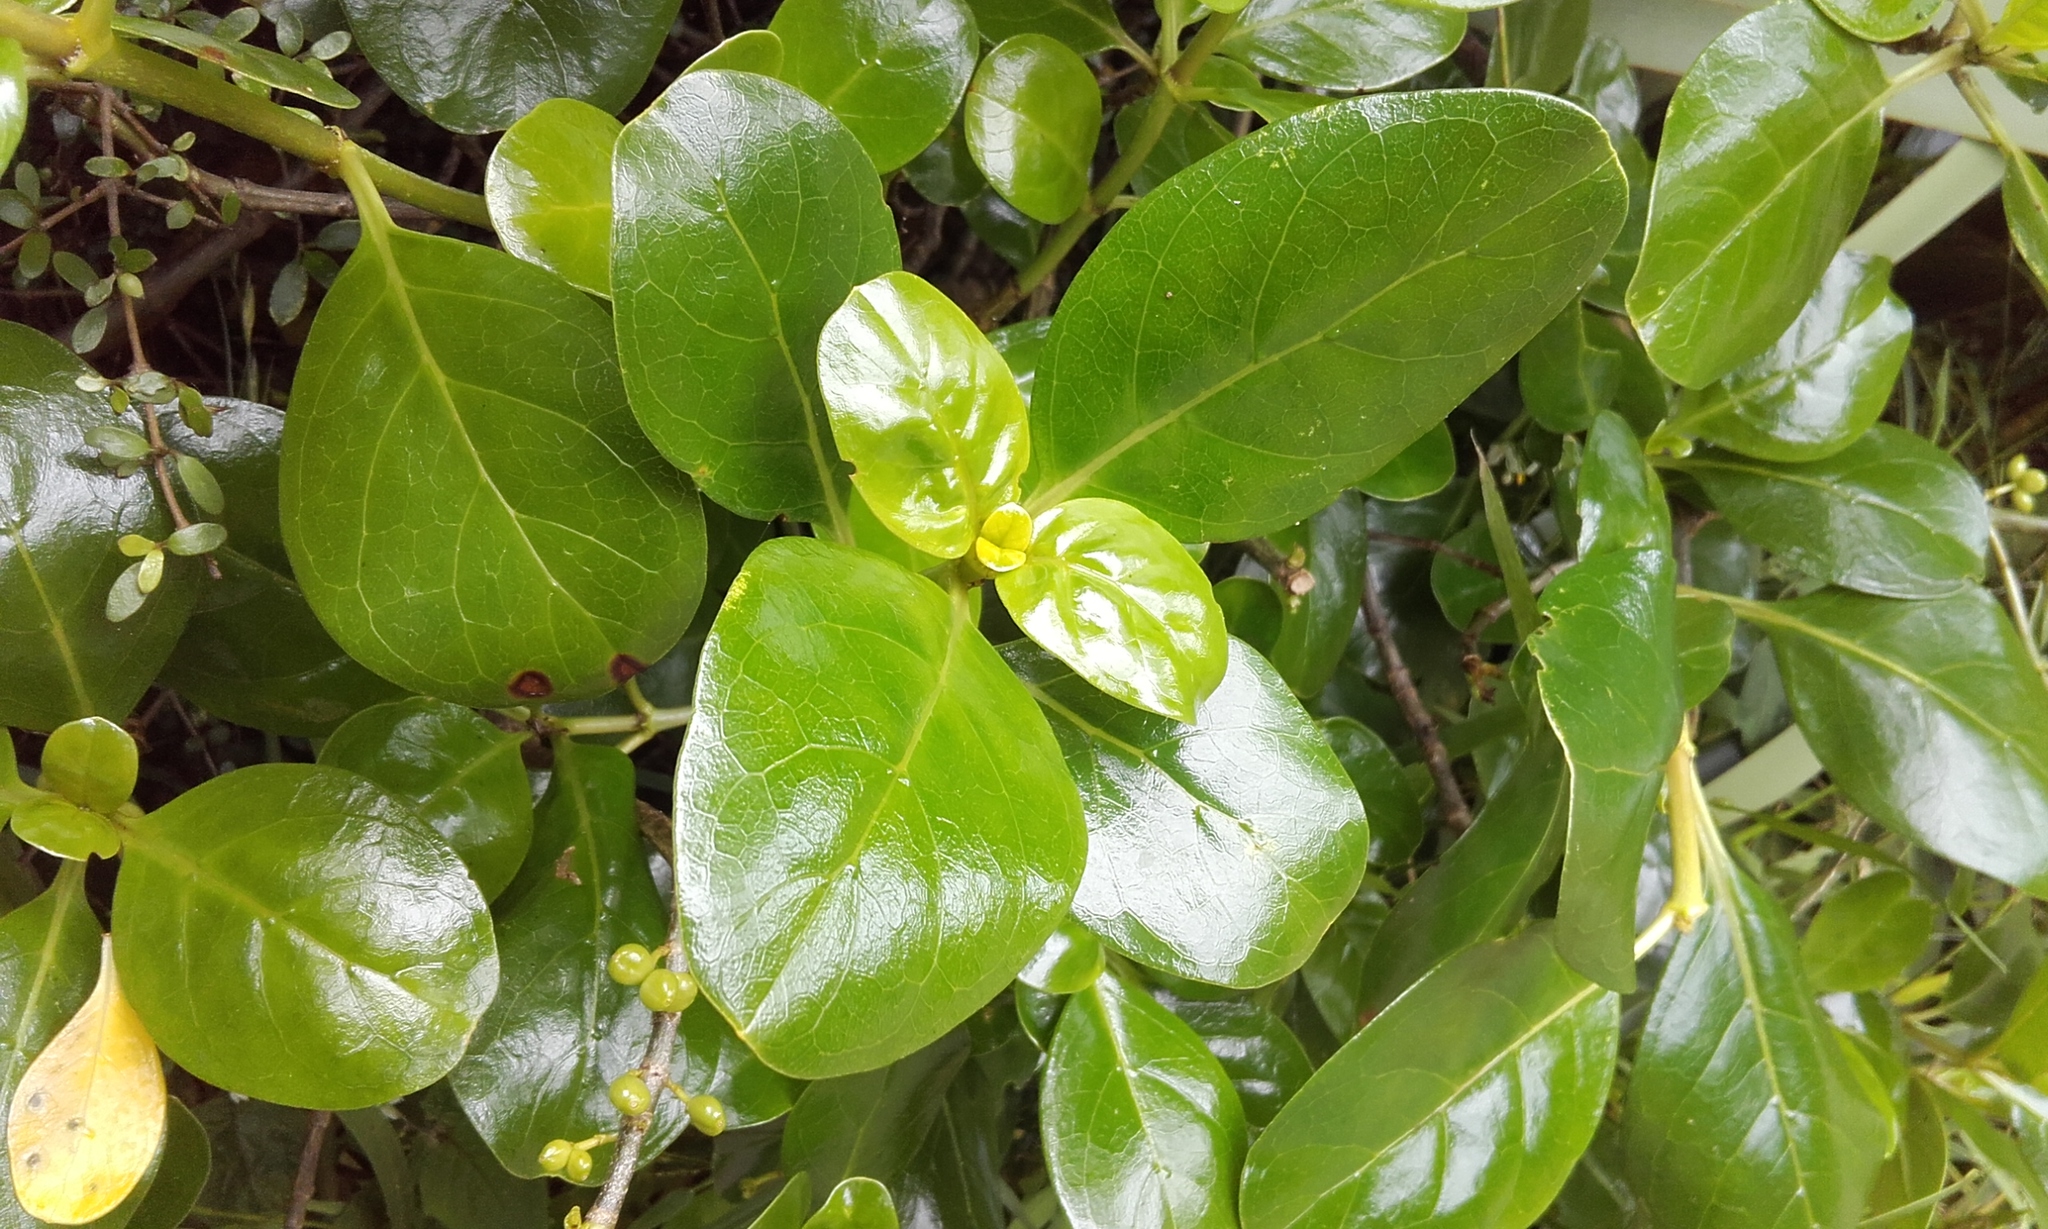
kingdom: Plantae
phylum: Tracheophyta
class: Magnoliopsida
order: Gentianales
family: Rubiaceae
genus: Coprosma
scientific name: Coprosma repens
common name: Tree bedstraw
